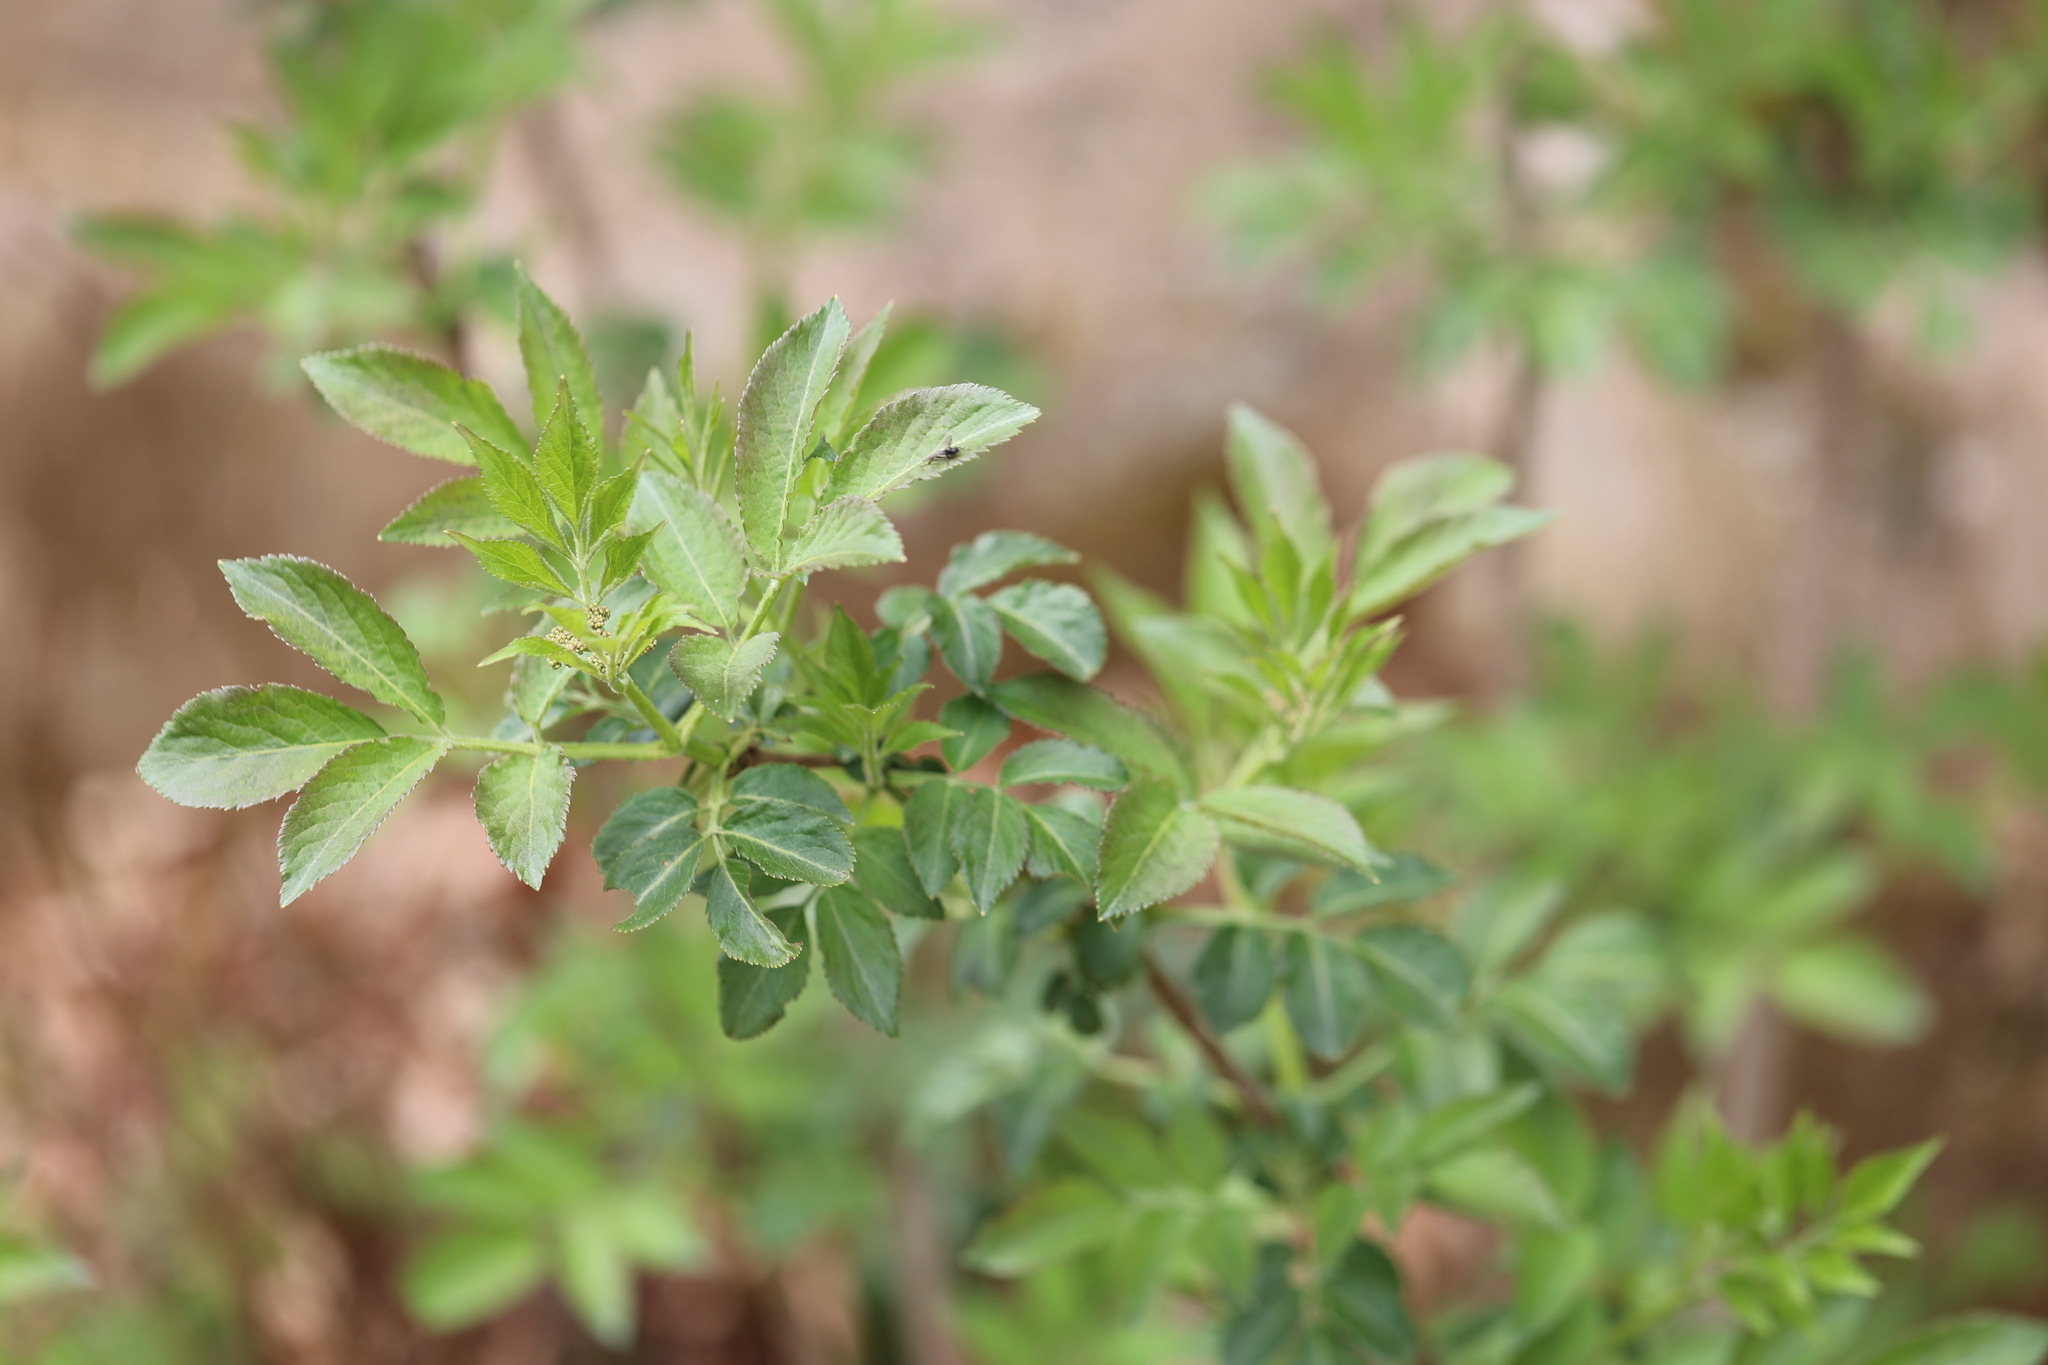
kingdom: Plantae
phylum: Tracheophyta
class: Magnoliopsida
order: Dipsacales
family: Viburnaceae
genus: Sambucus
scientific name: Sambucus nigra
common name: Elder
